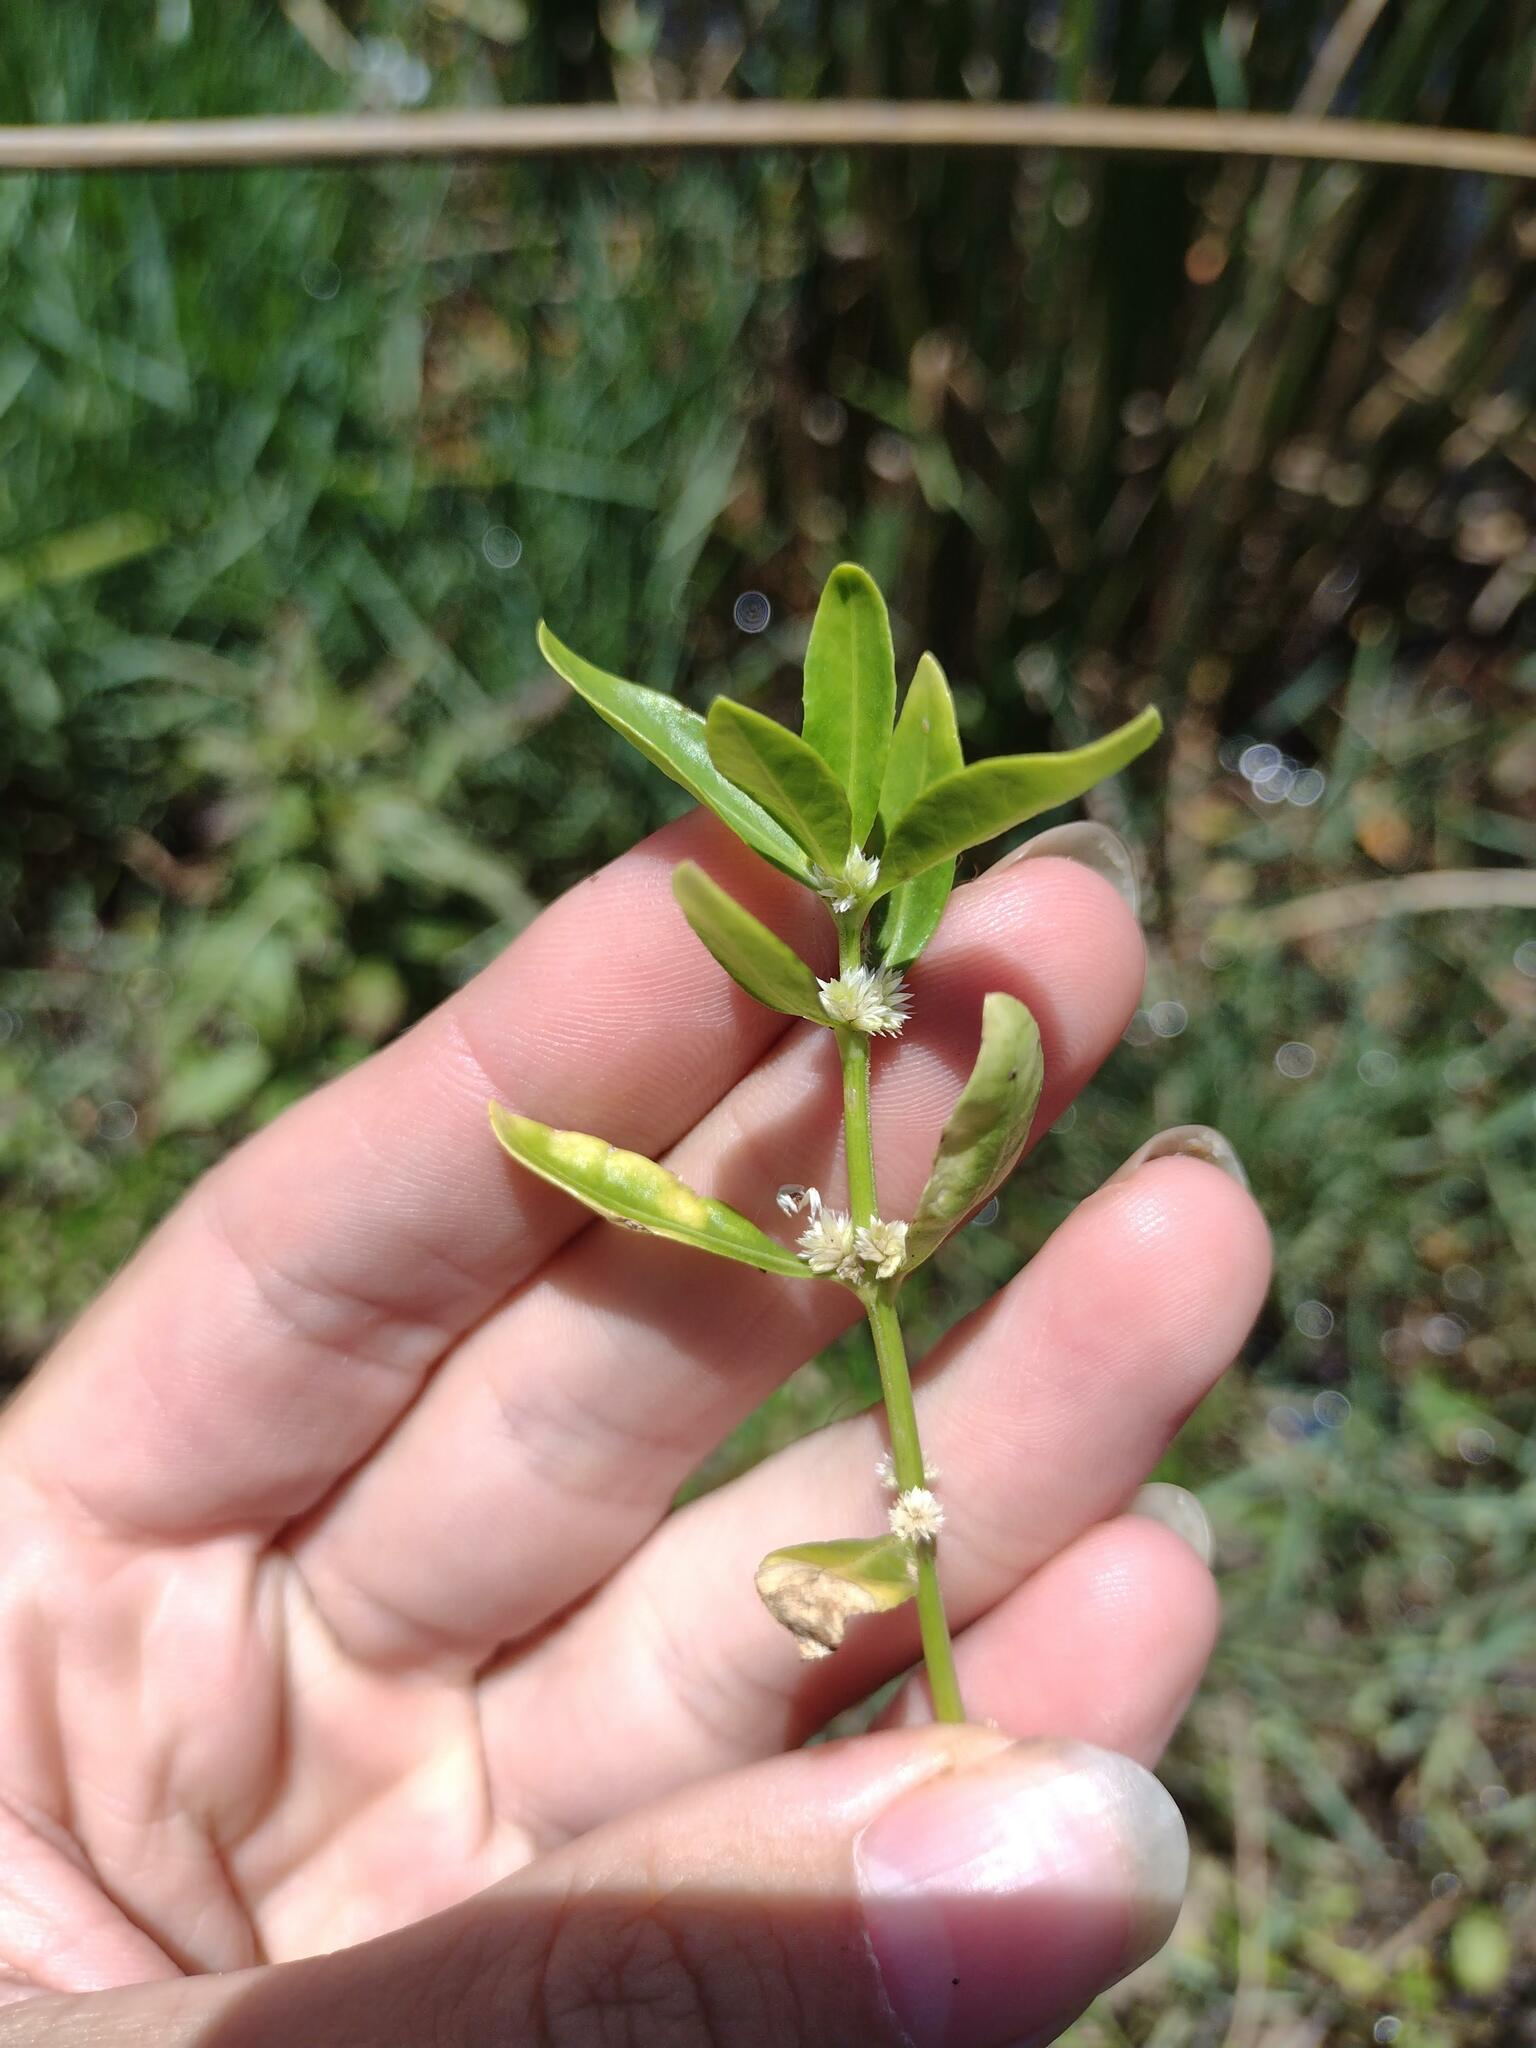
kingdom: Plantae
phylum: Tracheophyta
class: Magnoliopsida
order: Caryophyllales
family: Amaranthaceae
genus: Alternanthera
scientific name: Alternanthera sessilis
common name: Sessile joyweed
